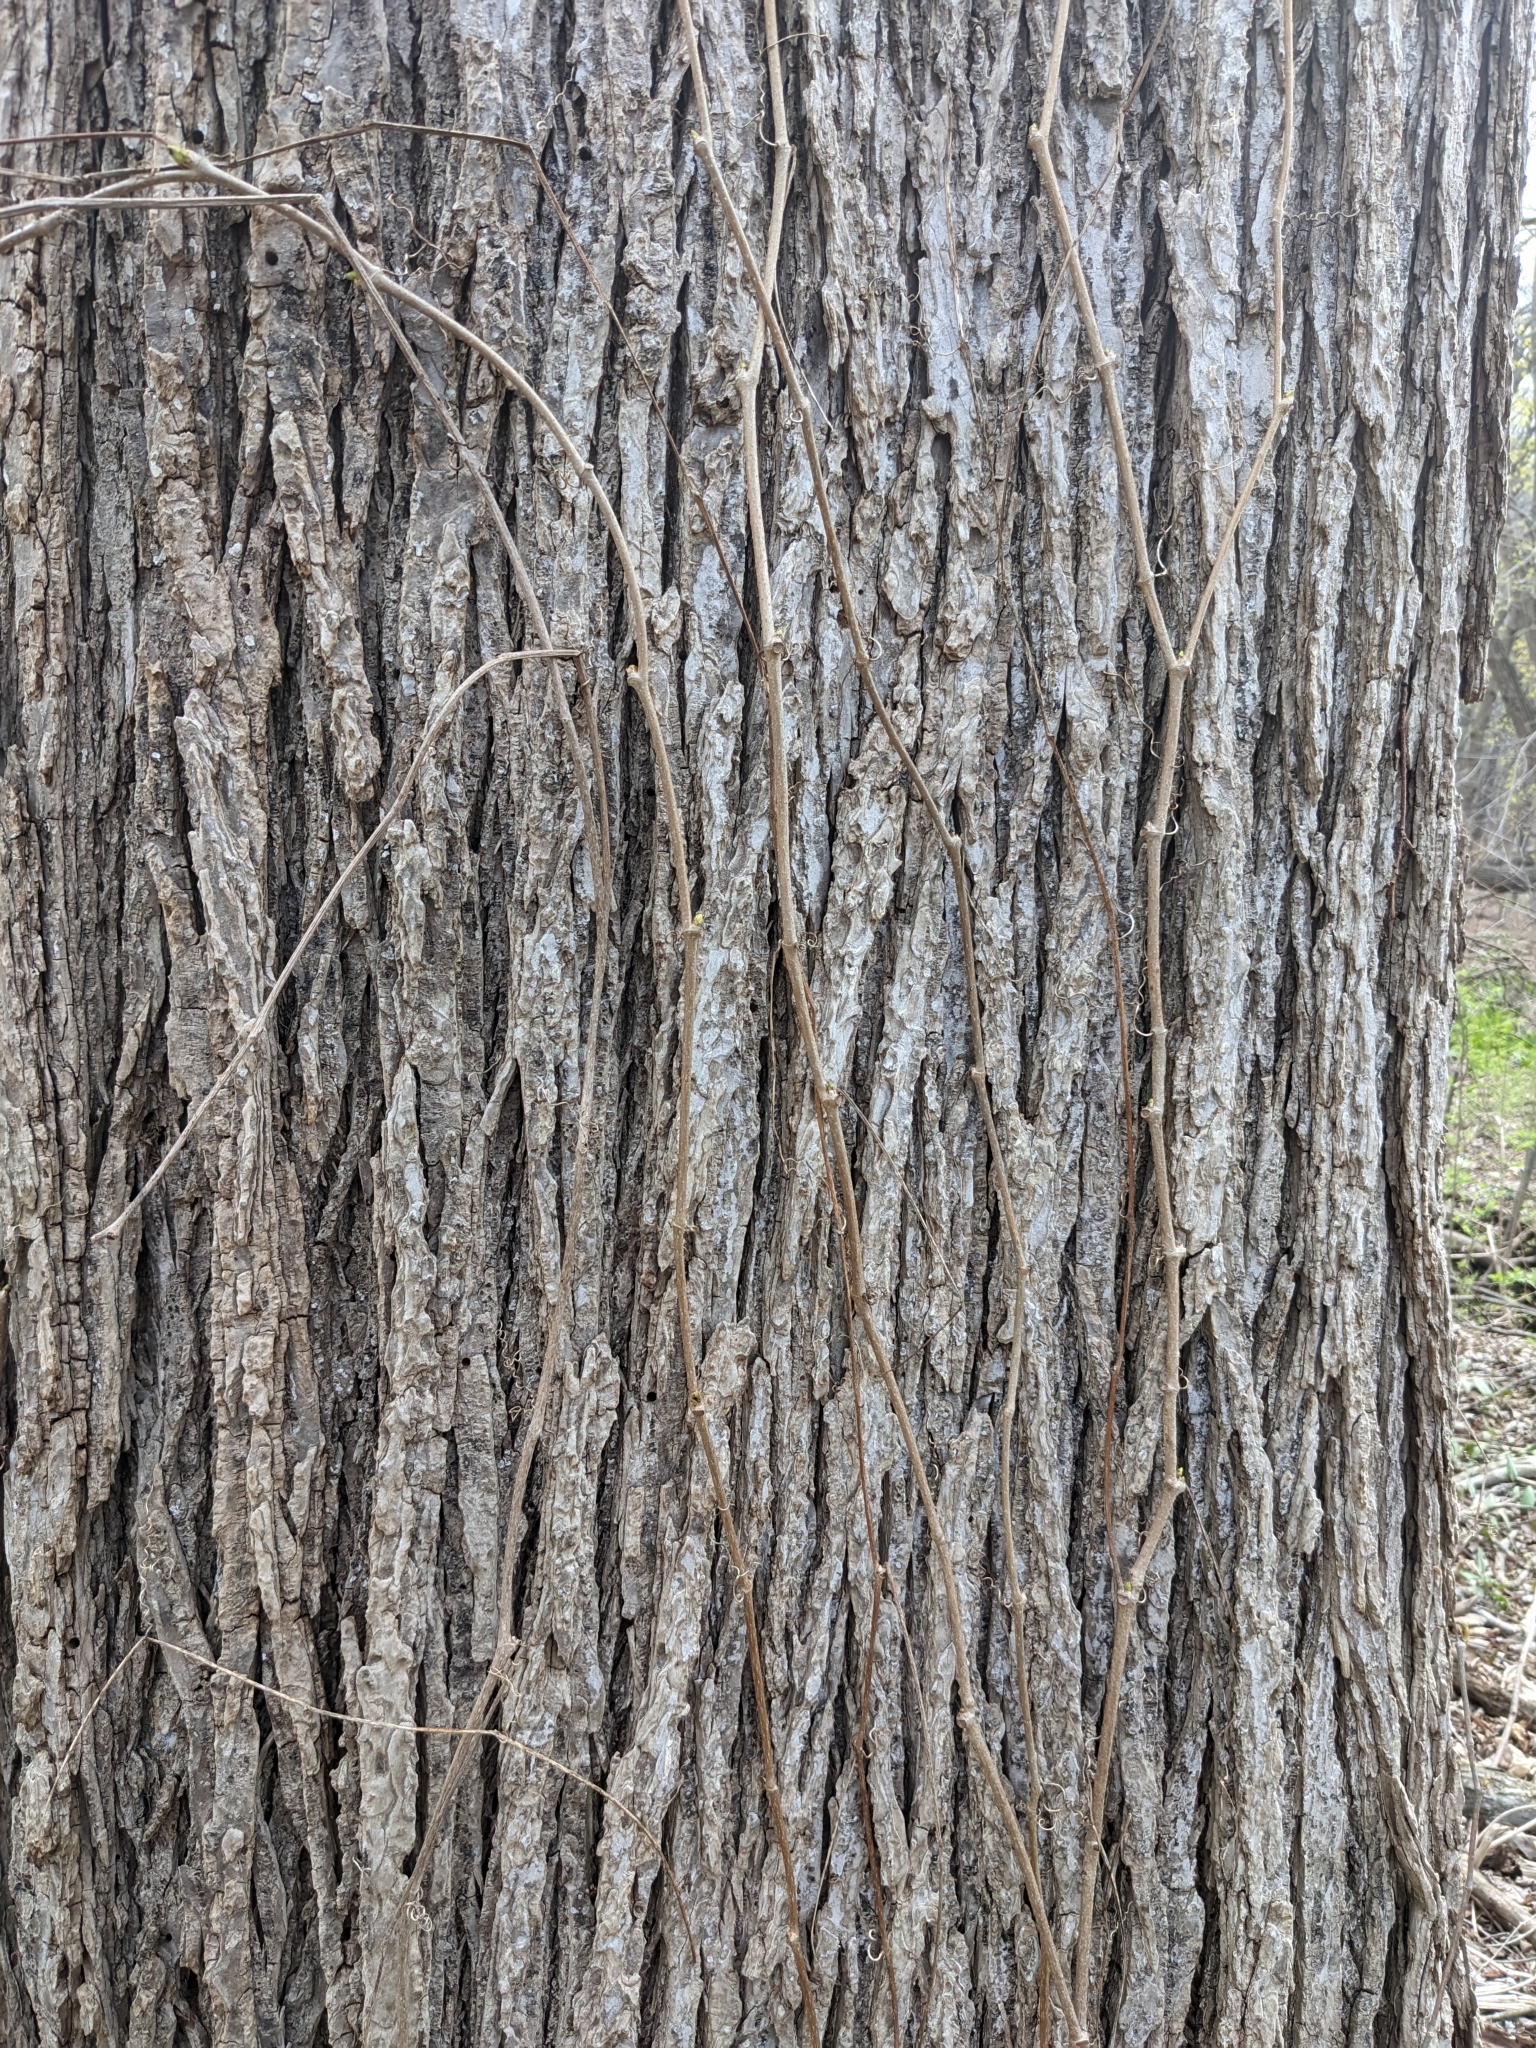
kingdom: Plantae
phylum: Tracheophyta
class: Magnoliopsida
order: Vitales
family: Vitaceae
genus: Parthenocissus
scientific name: Parthenocissus quinquefolia
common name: Virginia-creeper
